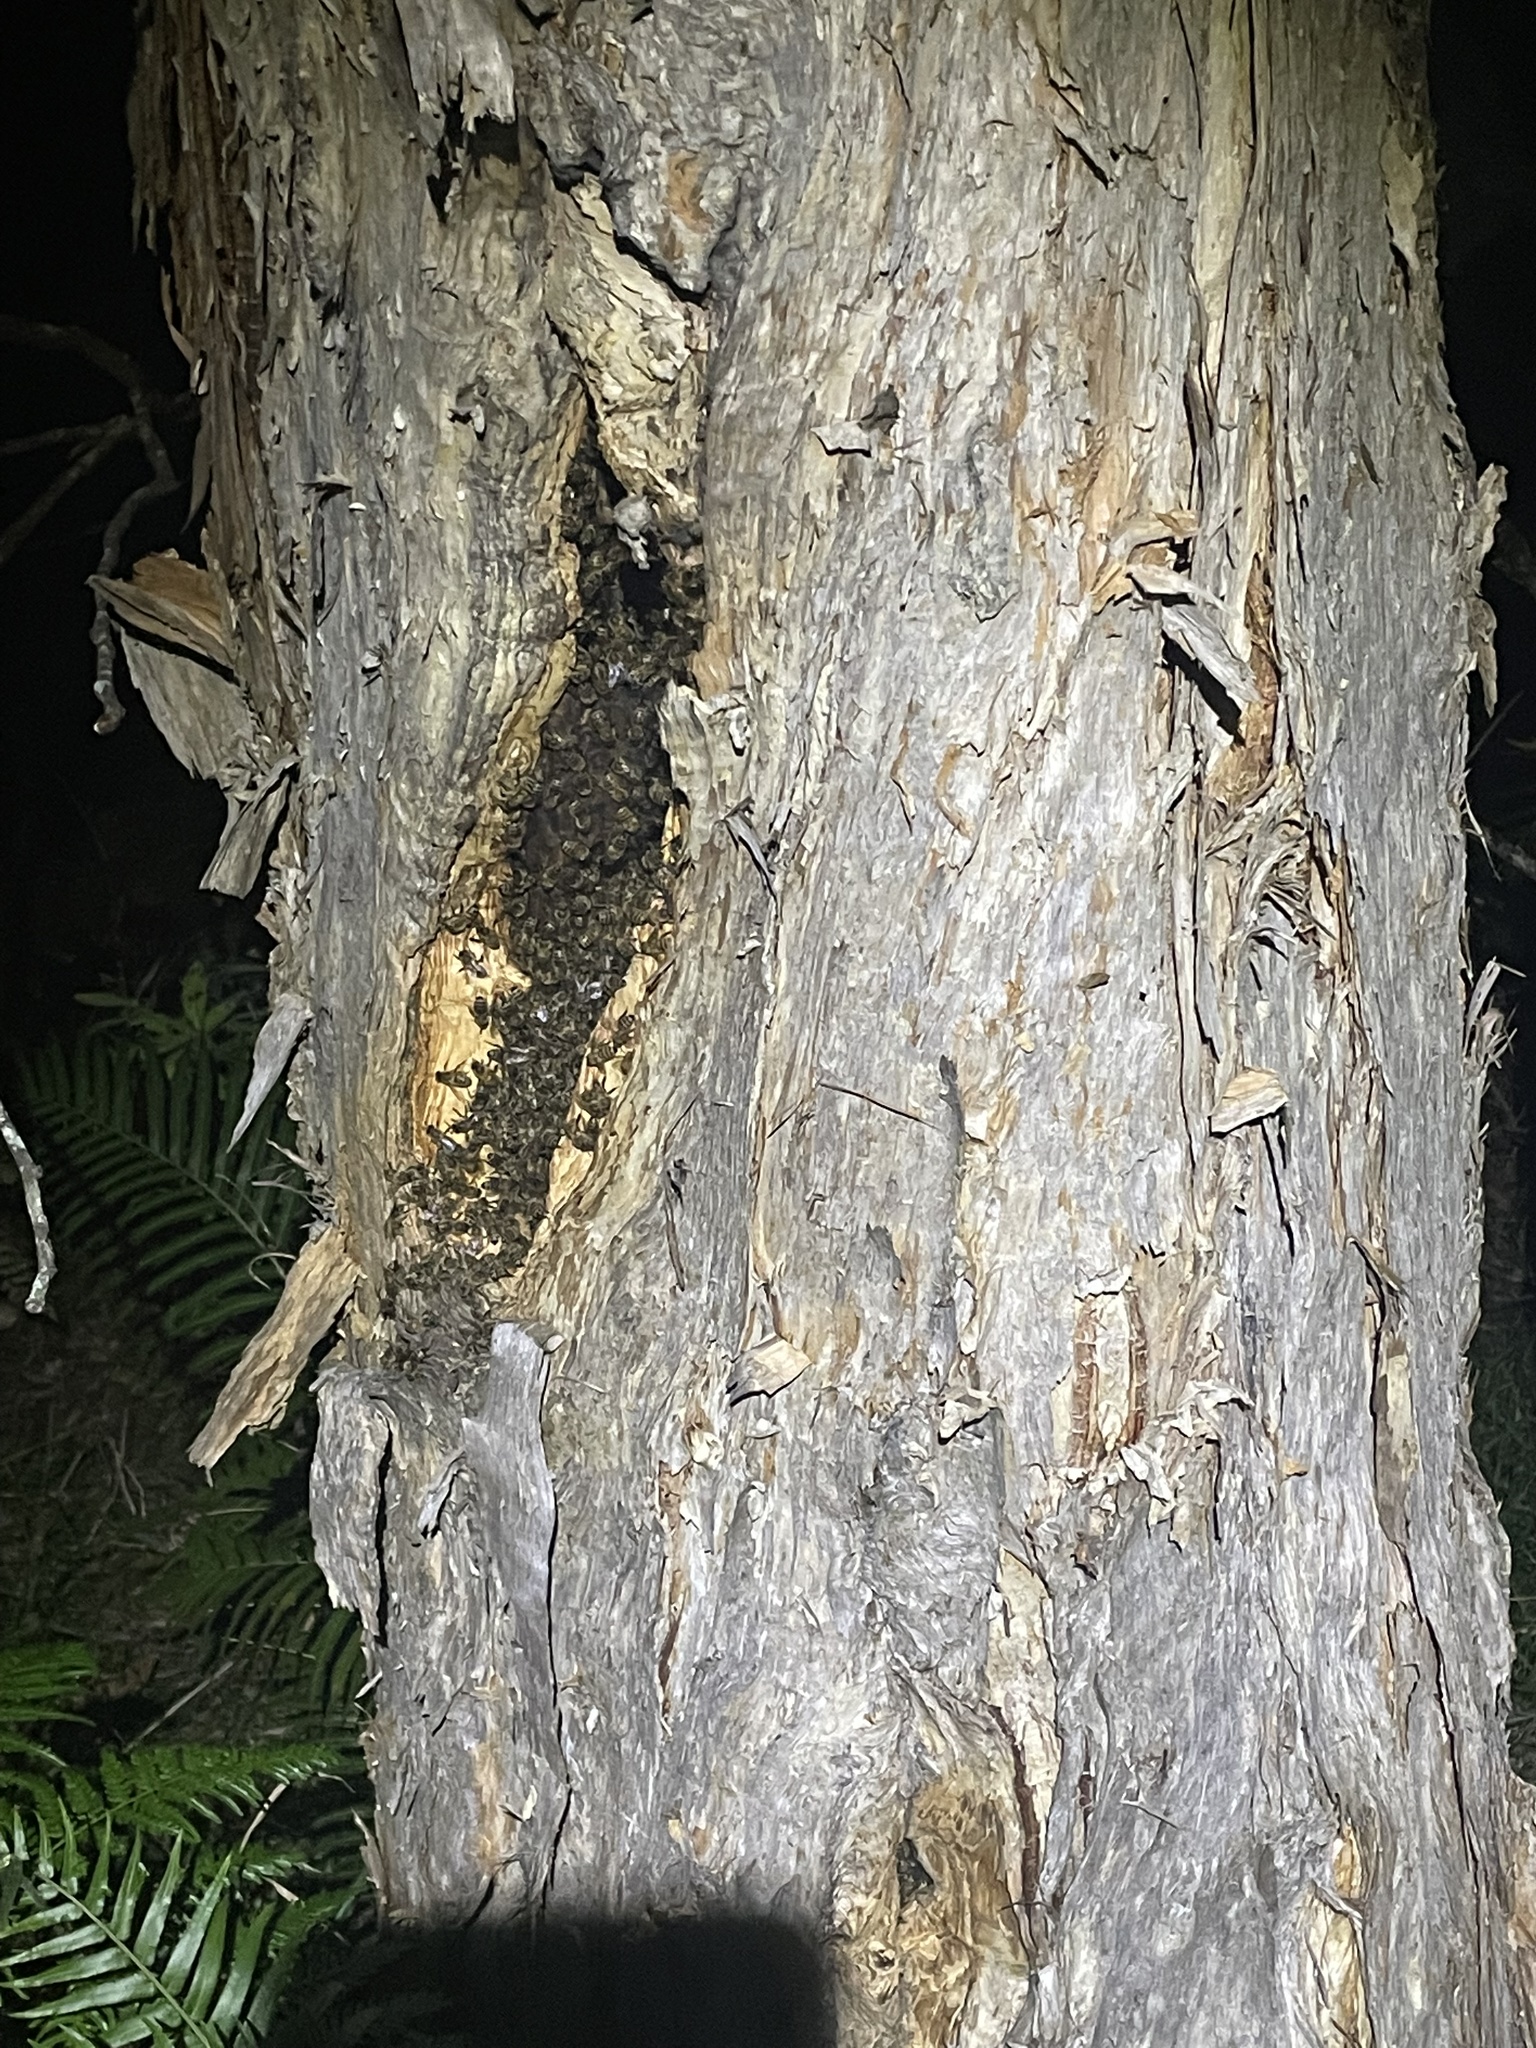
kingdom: Animalia
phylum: Arthropoda
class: Insecta
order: Hymenoptera
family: Apidae
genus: Apis
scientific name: Apis mellifera
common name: Honey bee
